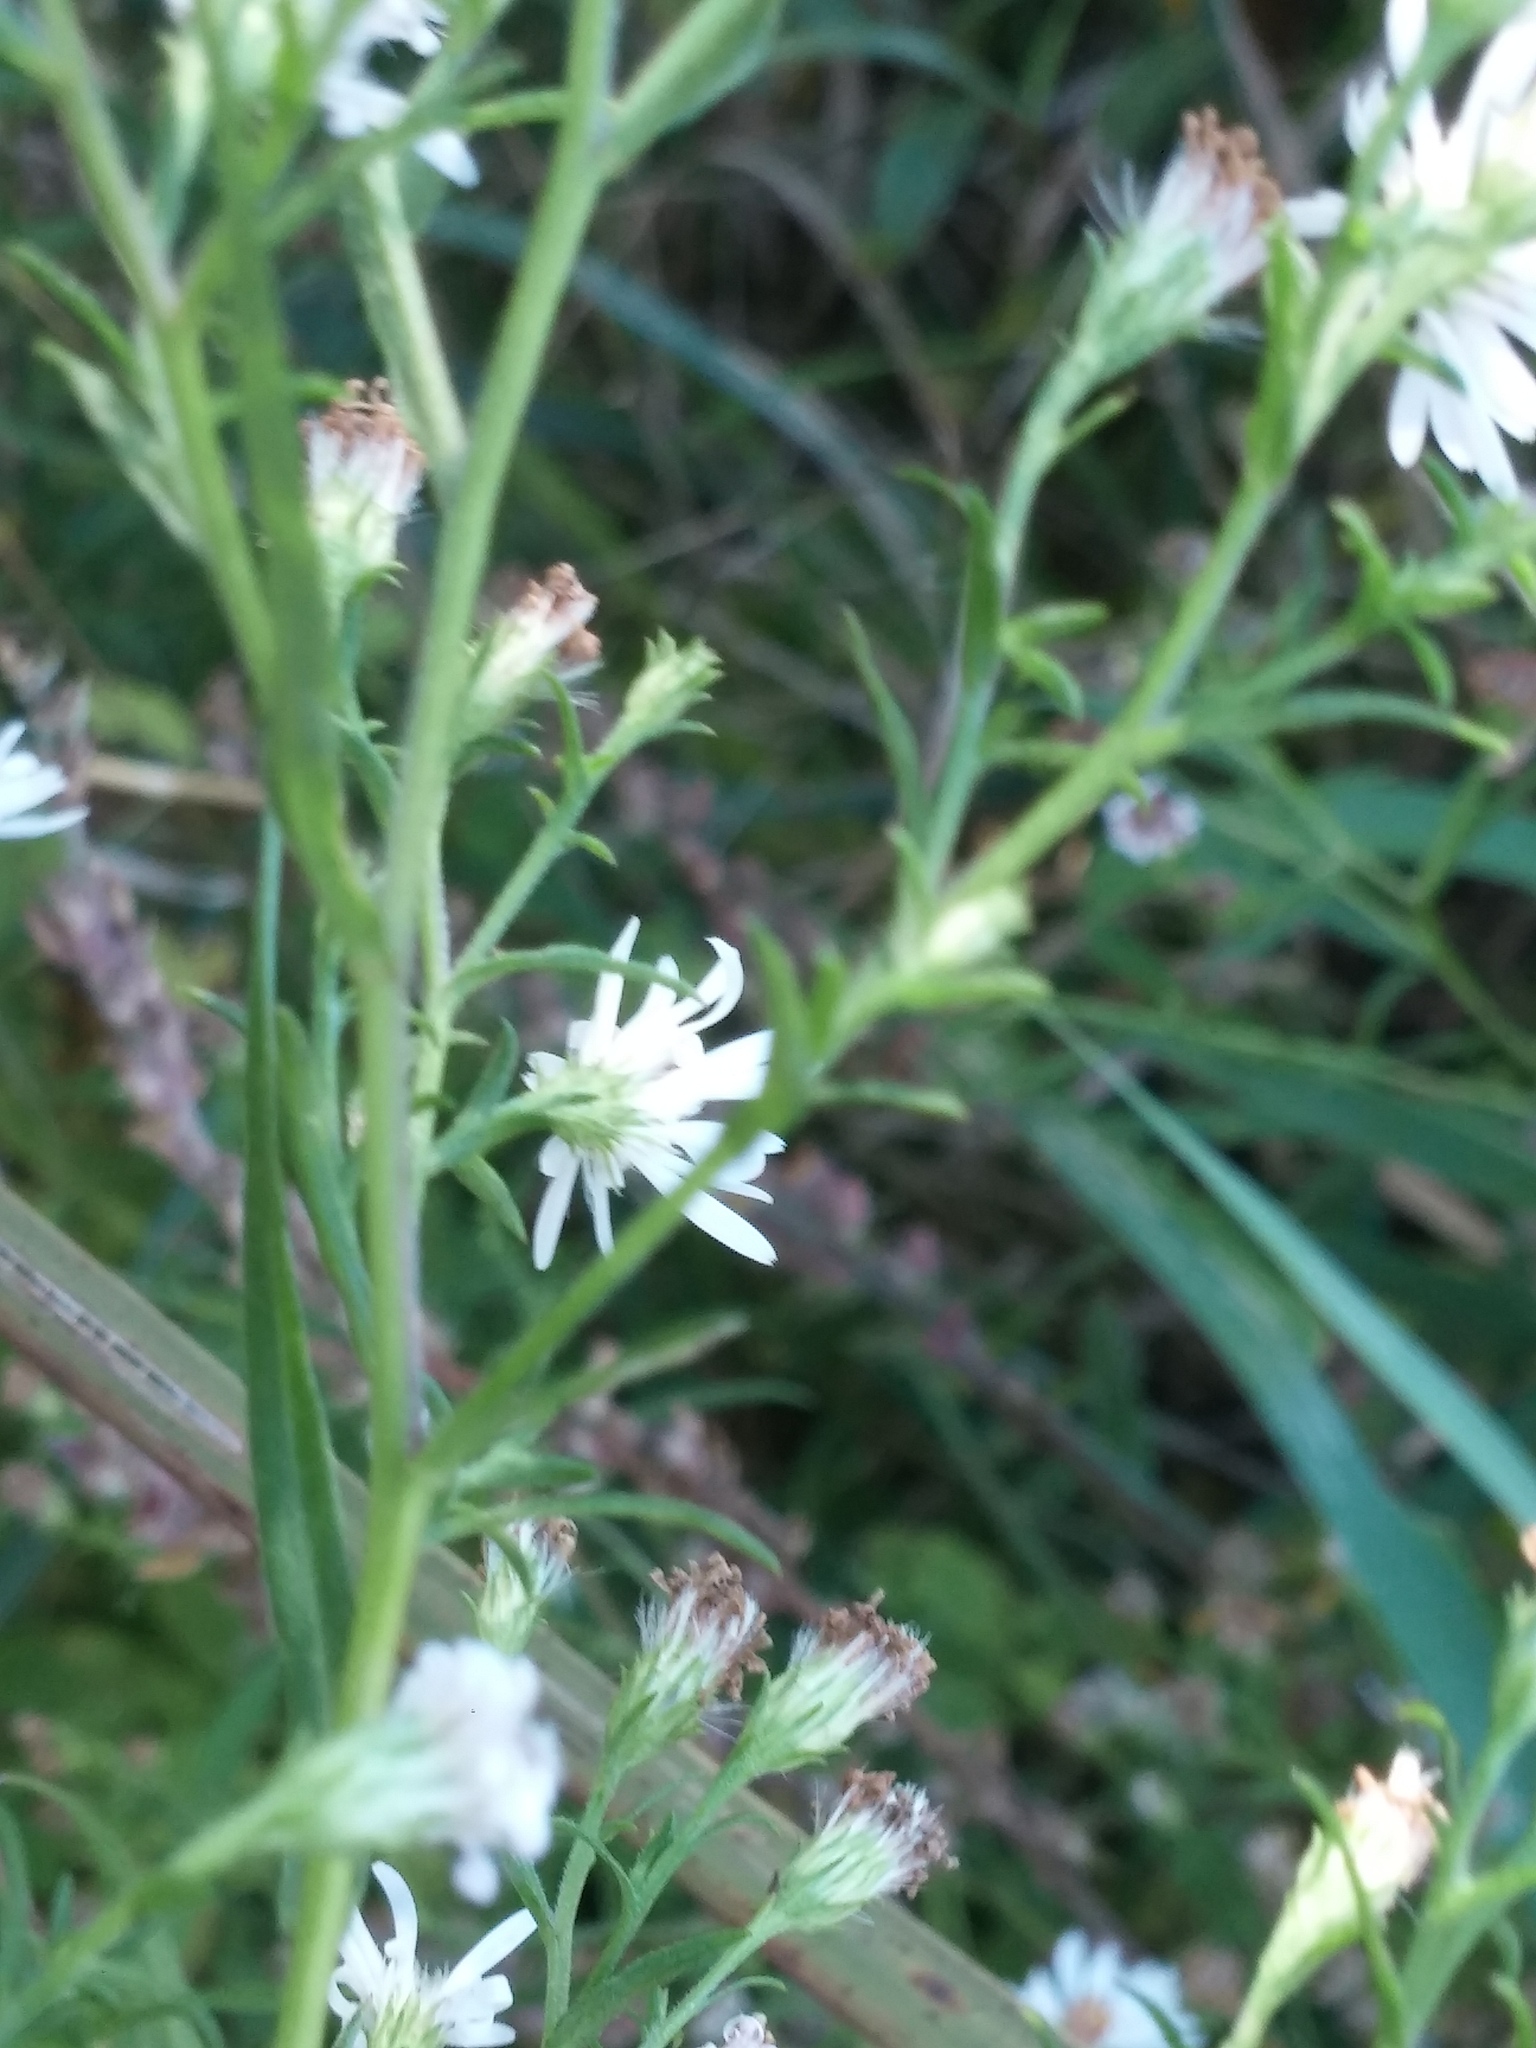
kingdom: Plantae
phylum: Tracheophyta
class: Magnoliopsida
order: Asterales
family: Asteraceae
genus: Symphyotrichum
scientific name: Symphyotrichum lanceolatum
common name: Panicled aster
